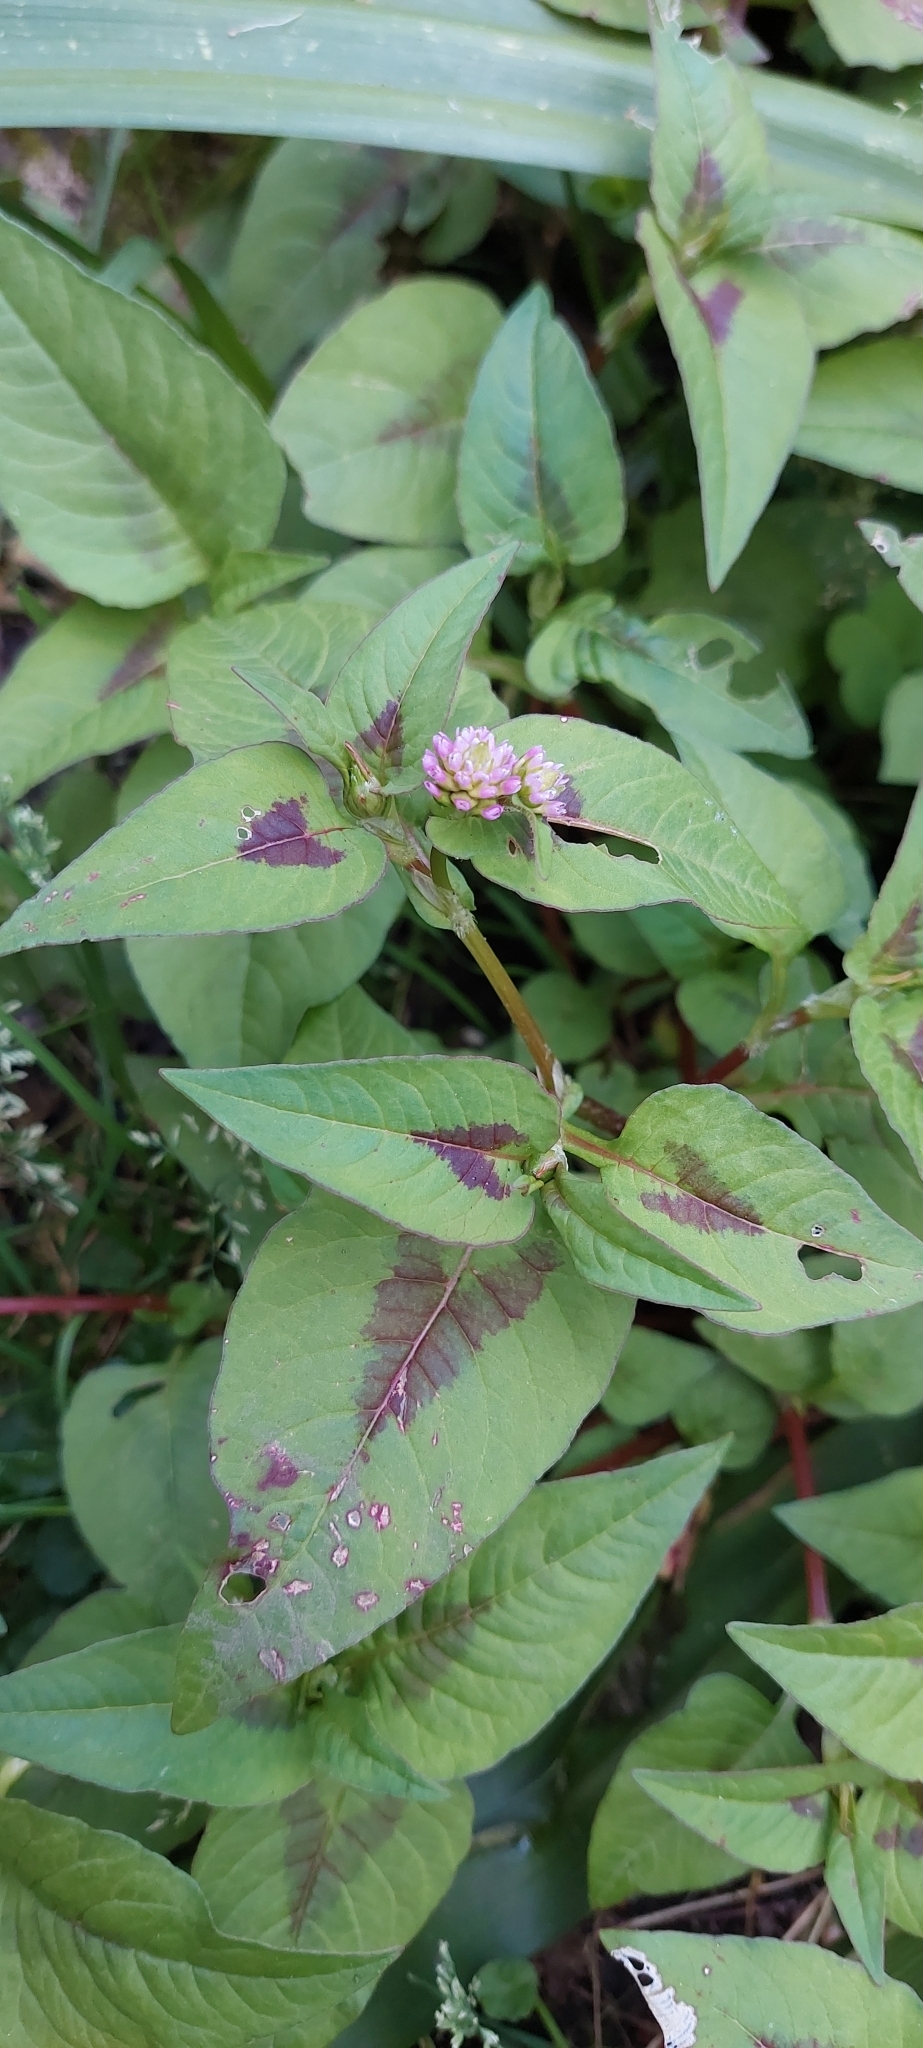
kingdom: Plantae
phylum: Tracheophyta
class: Magnoliopsida
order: Caryophyllales
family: Polygonaceae
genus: Persicaria
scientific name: Persicaria nepalensis
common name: Nepal persicaria
